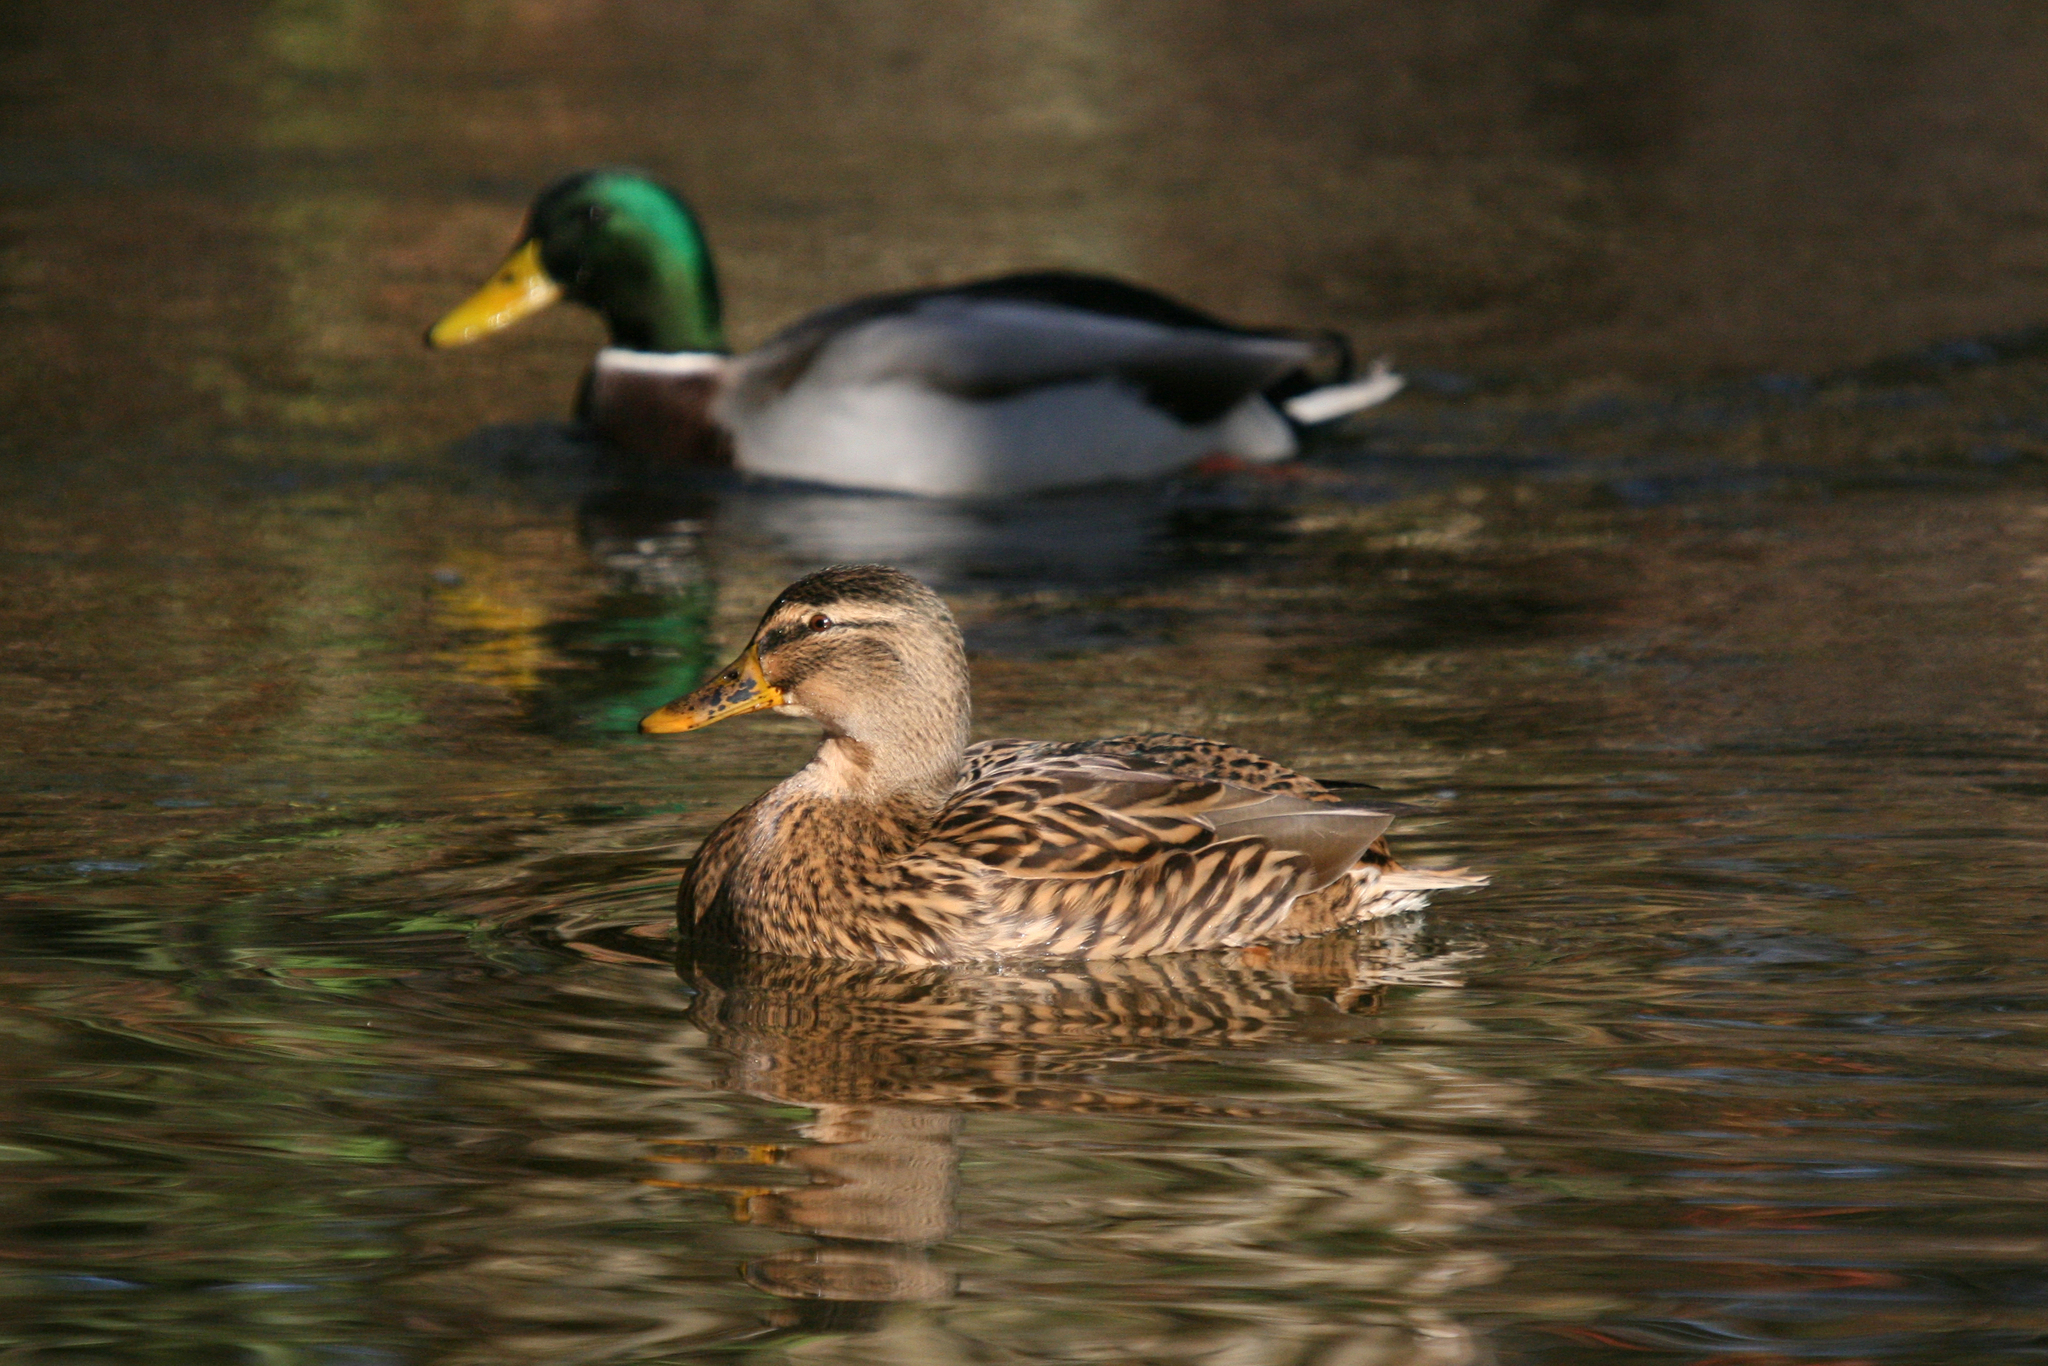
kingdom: Animalia
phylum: Chordata
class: Aves
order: Anseriformes
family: Anatidae
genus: Anas
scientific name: Anas platyrhynchos
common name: Mallard
